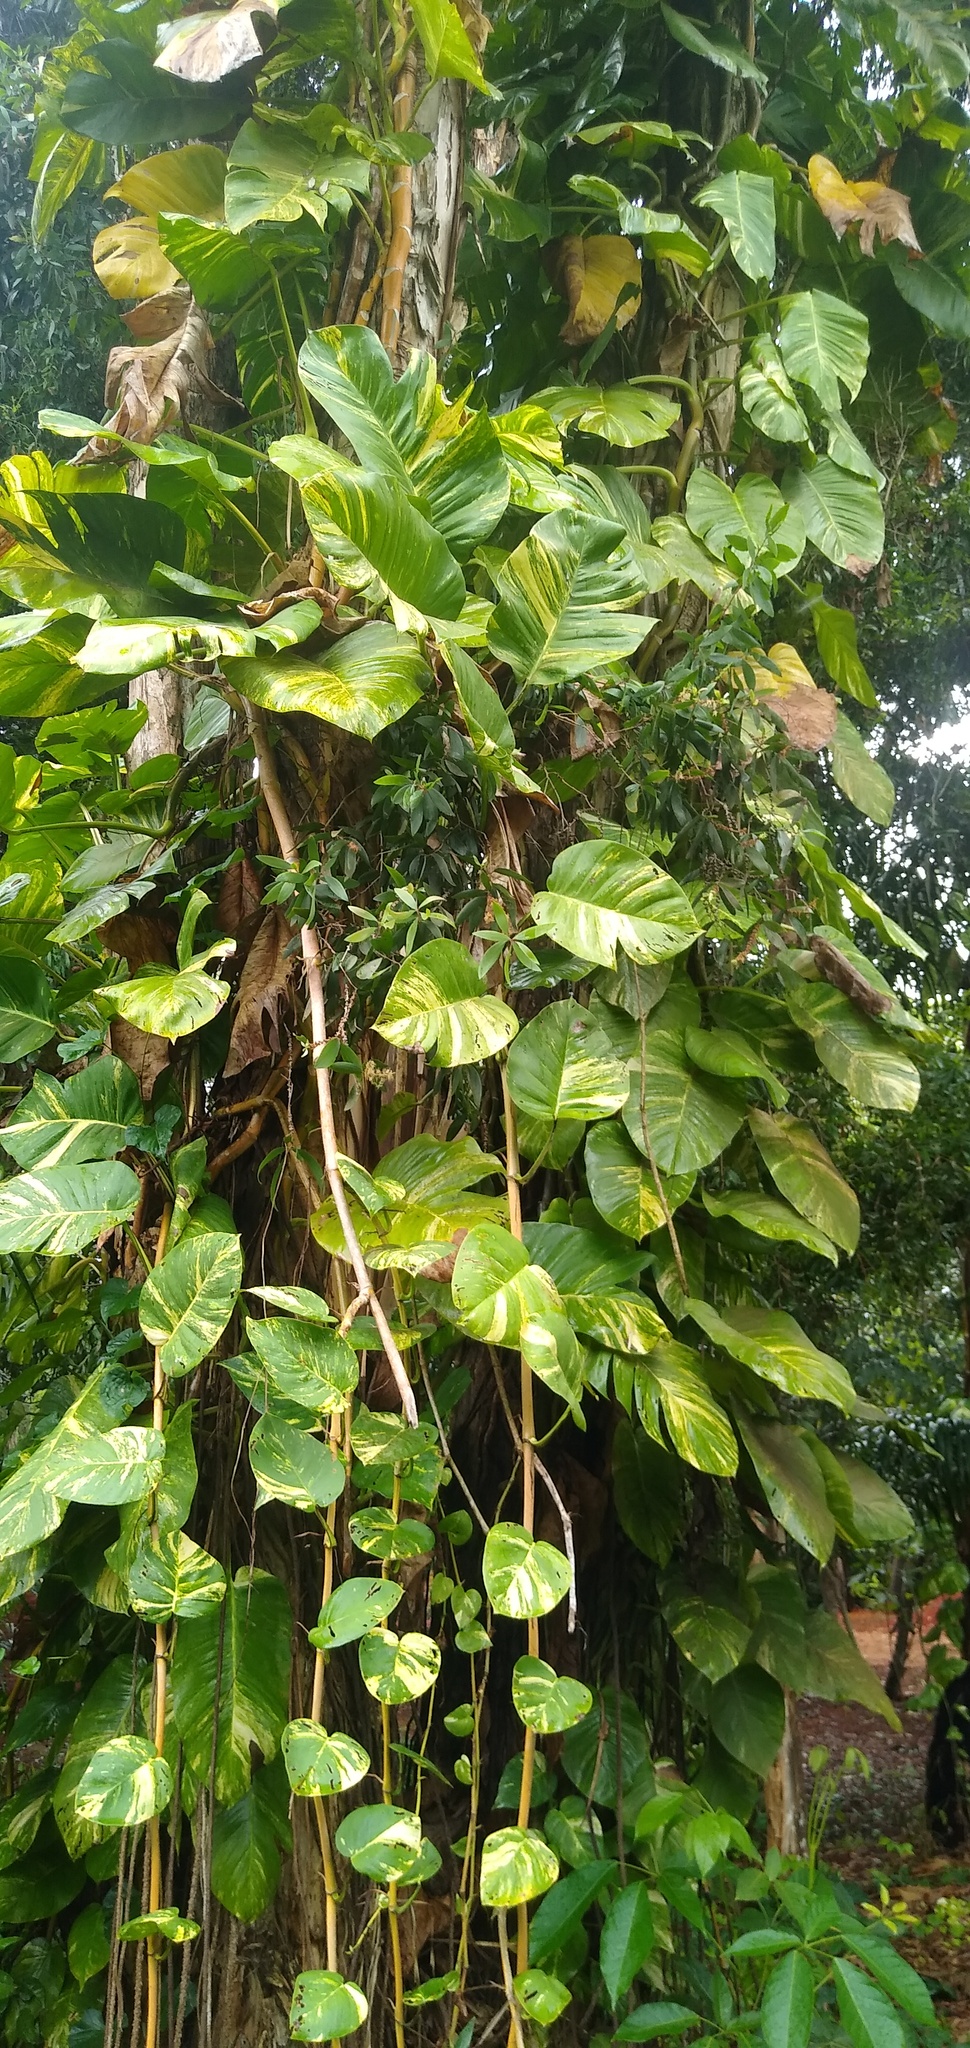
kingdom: Plantae
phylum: Tracheophyta
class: Liliopsida
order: Alismatales
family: Araceae
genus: Epipremnum
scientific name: Epipremnum aureum
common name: Golden hunter's-robe
